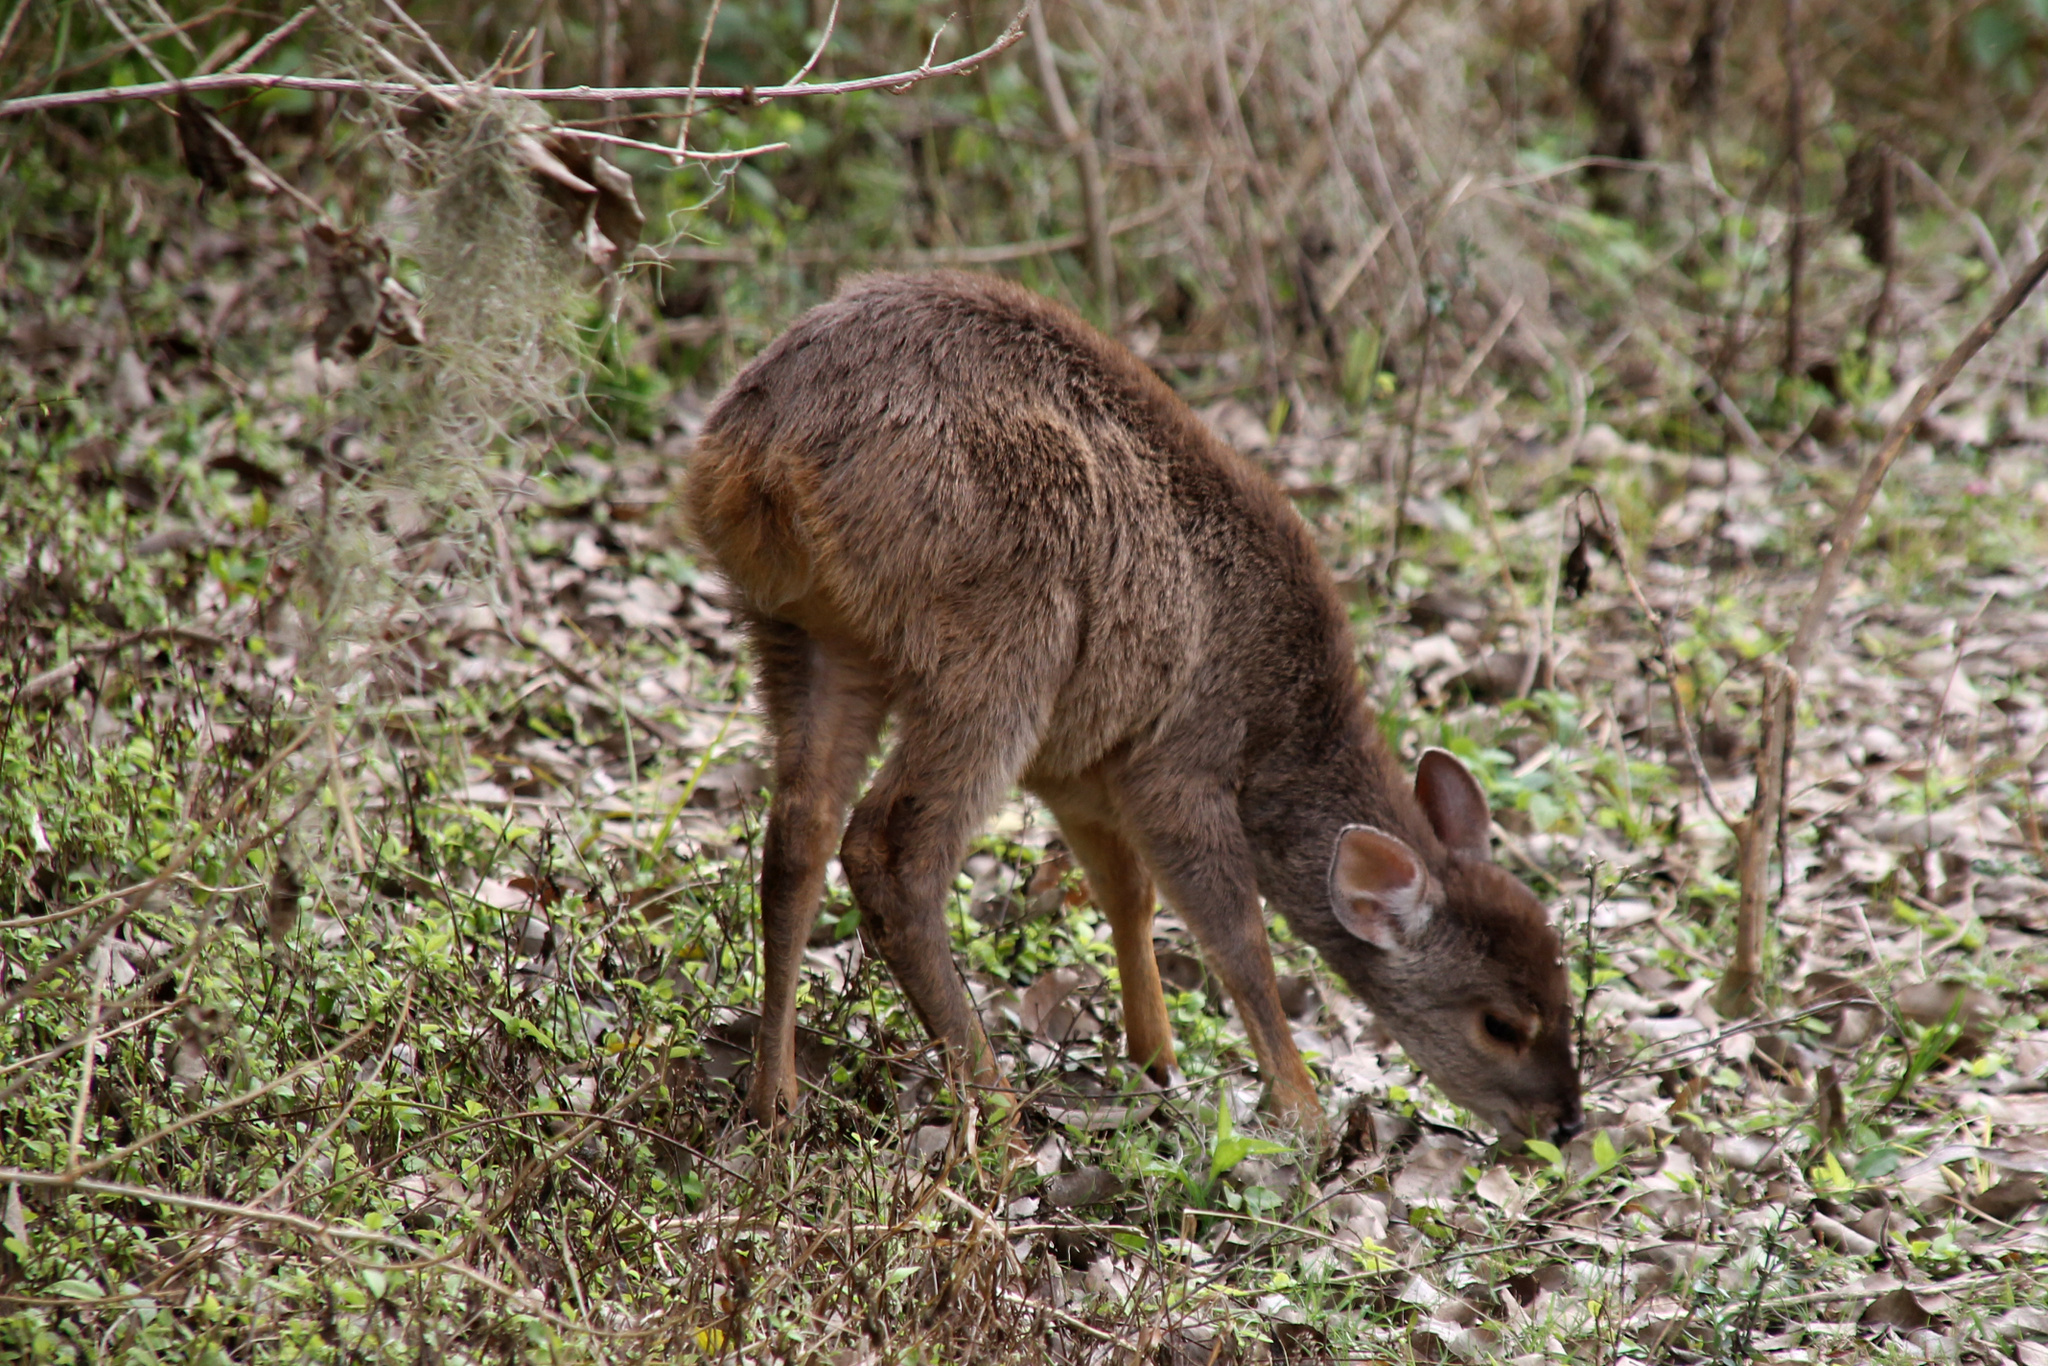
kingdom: Animalia
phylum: Chordata
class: Mammalia
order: Artiodactyla
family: Cervidae
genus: Mazama
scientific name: Mazama gouazoubira
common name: Gray brocket
